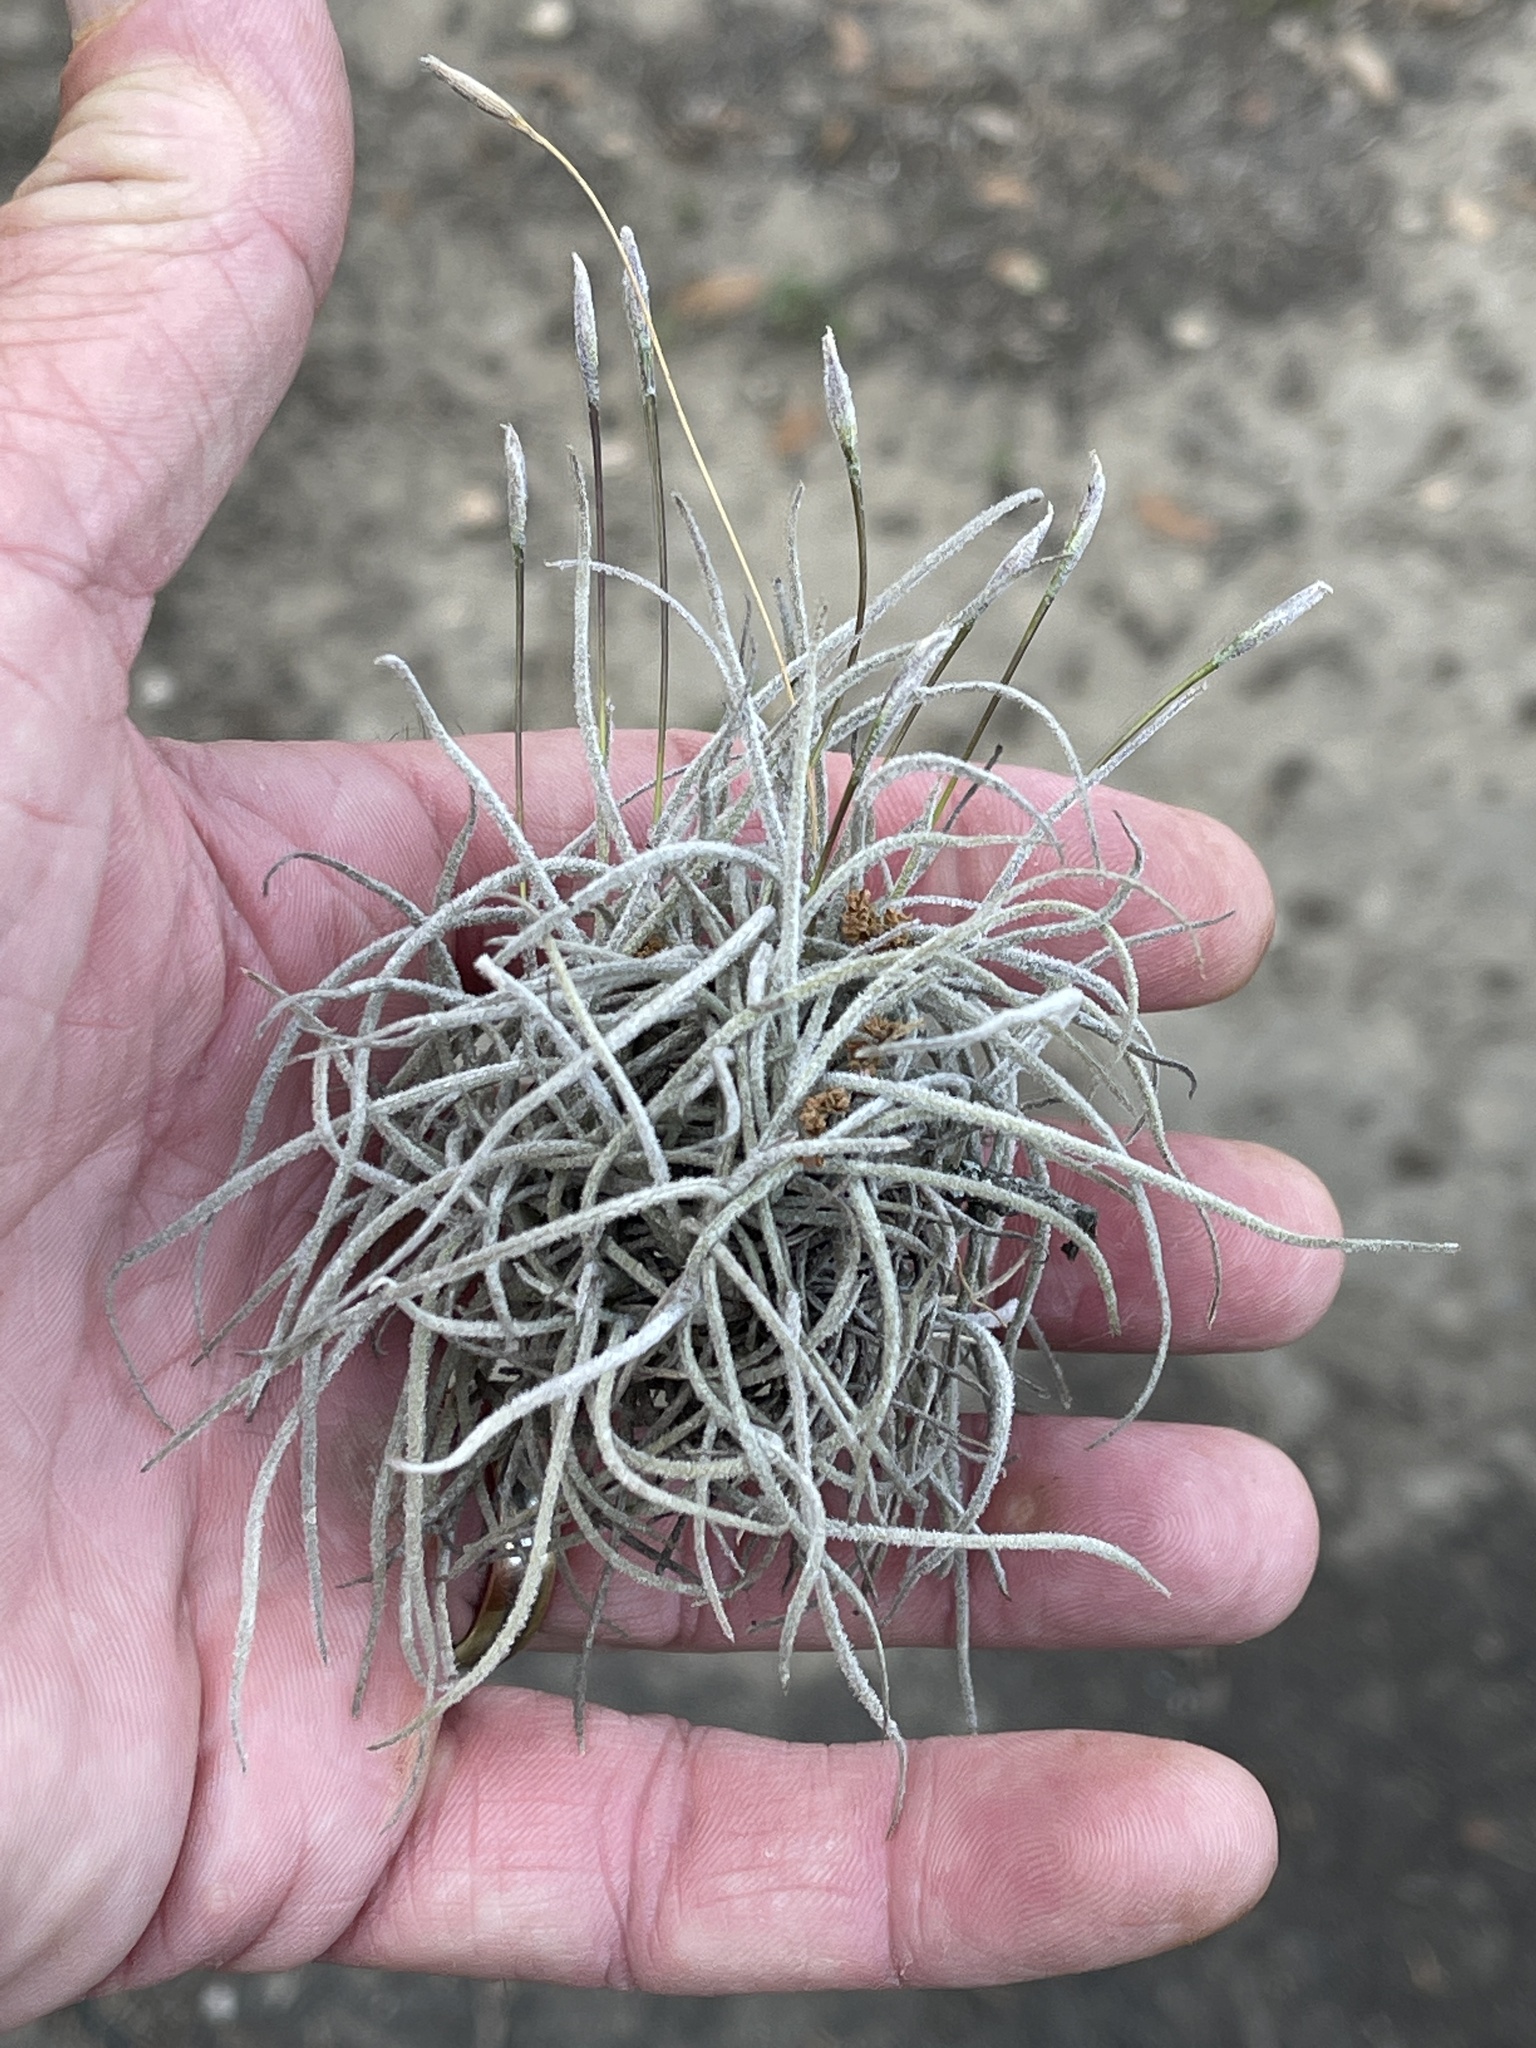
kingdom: Plantae
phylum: Tracheophyta
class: Liliopsida
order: Poales
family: Bromeliaceae
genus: Tillandsia
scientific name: Tillandsia recurvata
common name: Small ballmoss
